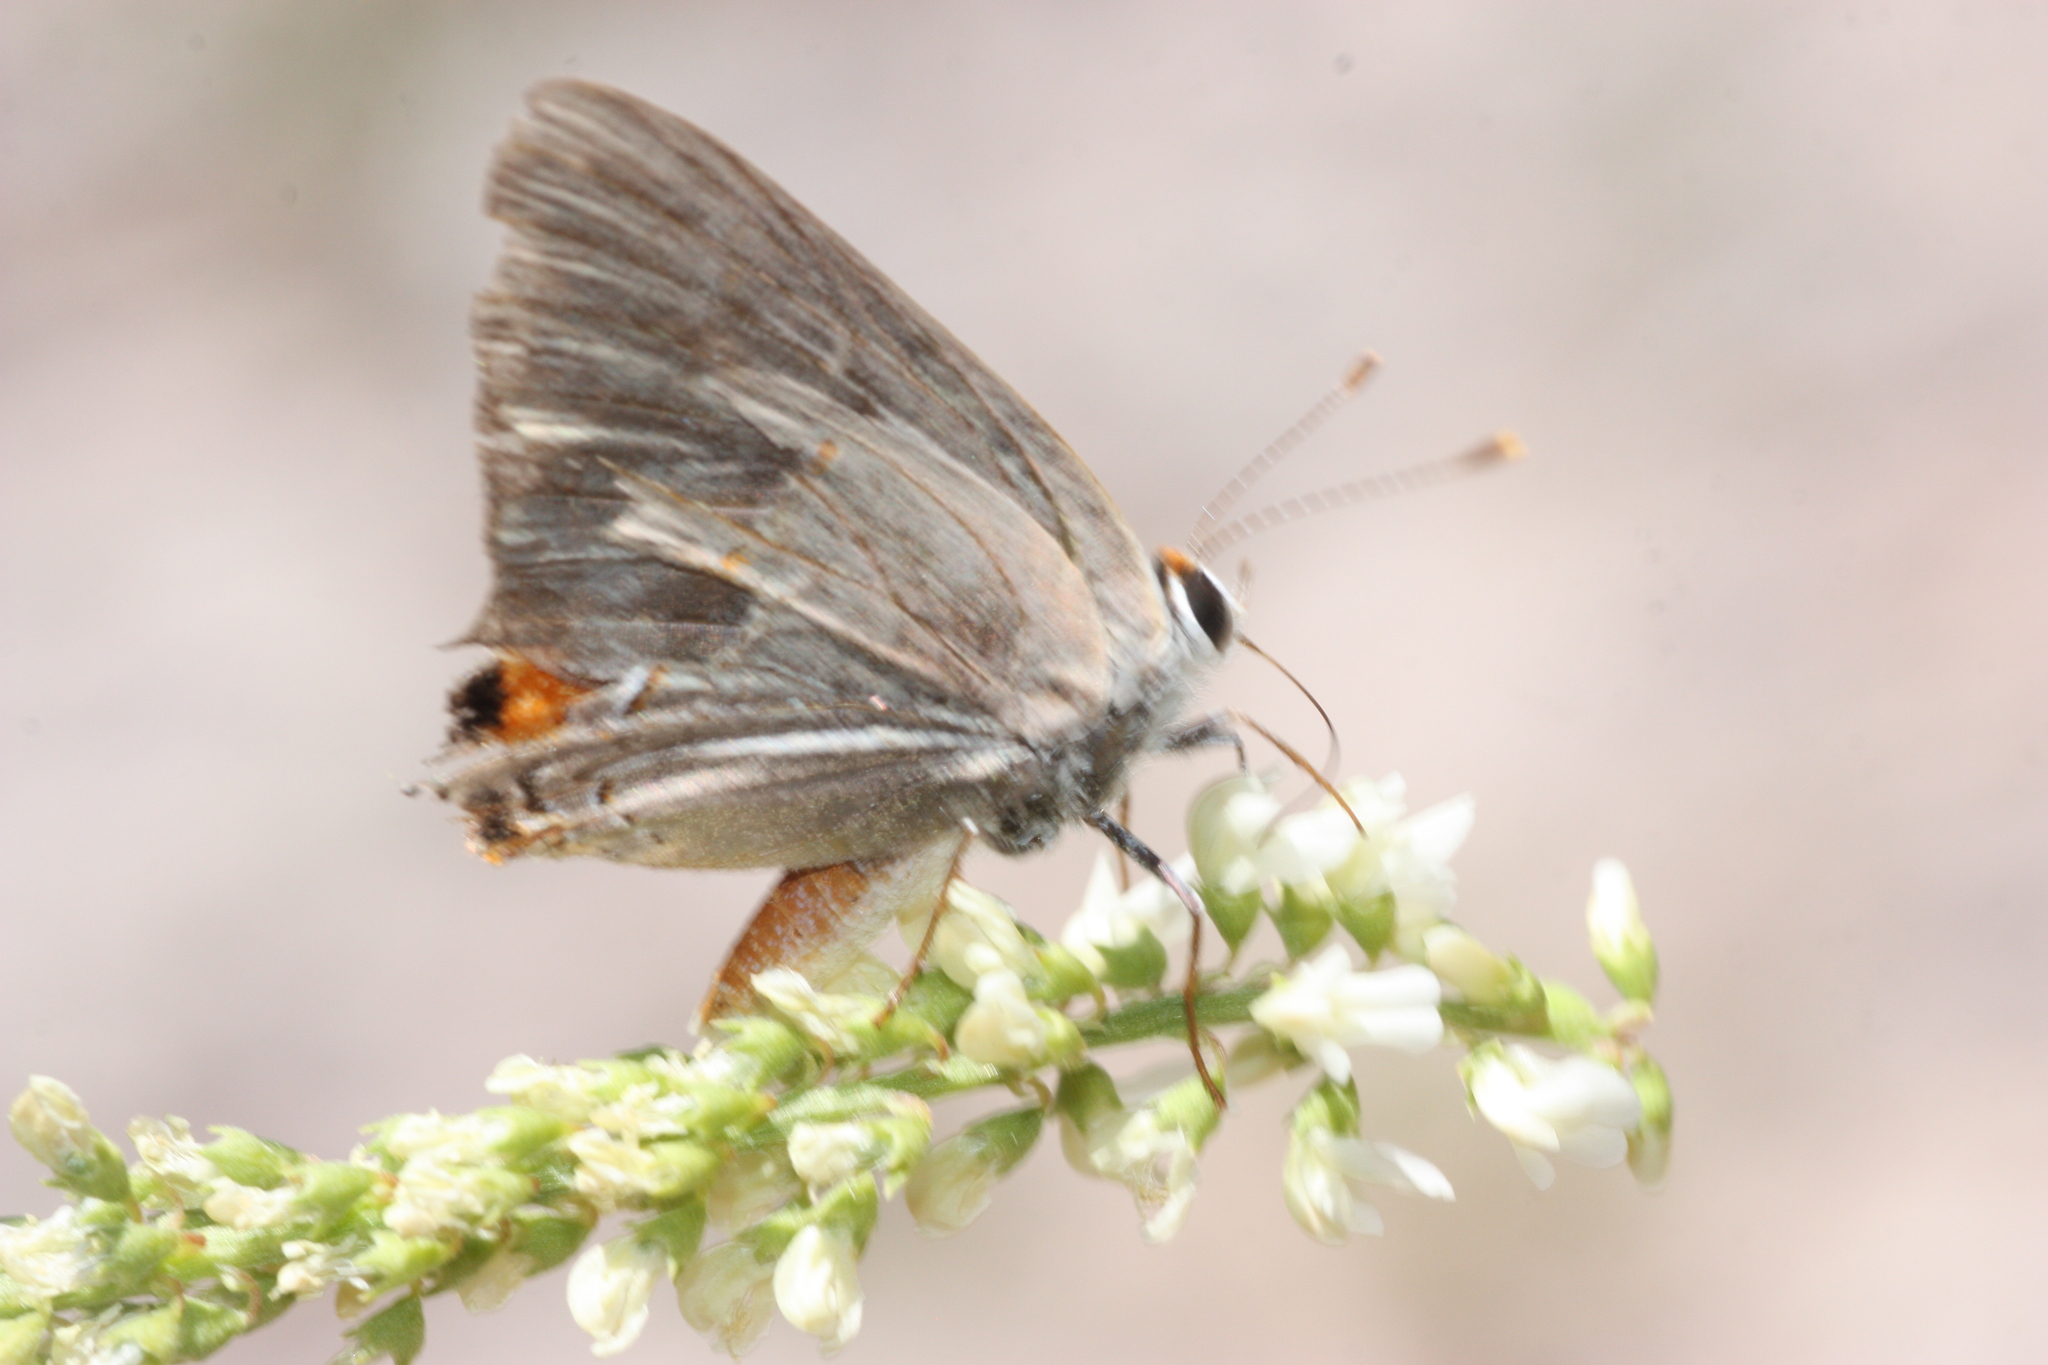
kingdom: Animalia
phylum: Arthropoda
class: Insecta
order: Lepidoptera
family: Lycaenidae
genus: Strymon
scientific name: Strymon melinus
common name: Gray hairstreak
